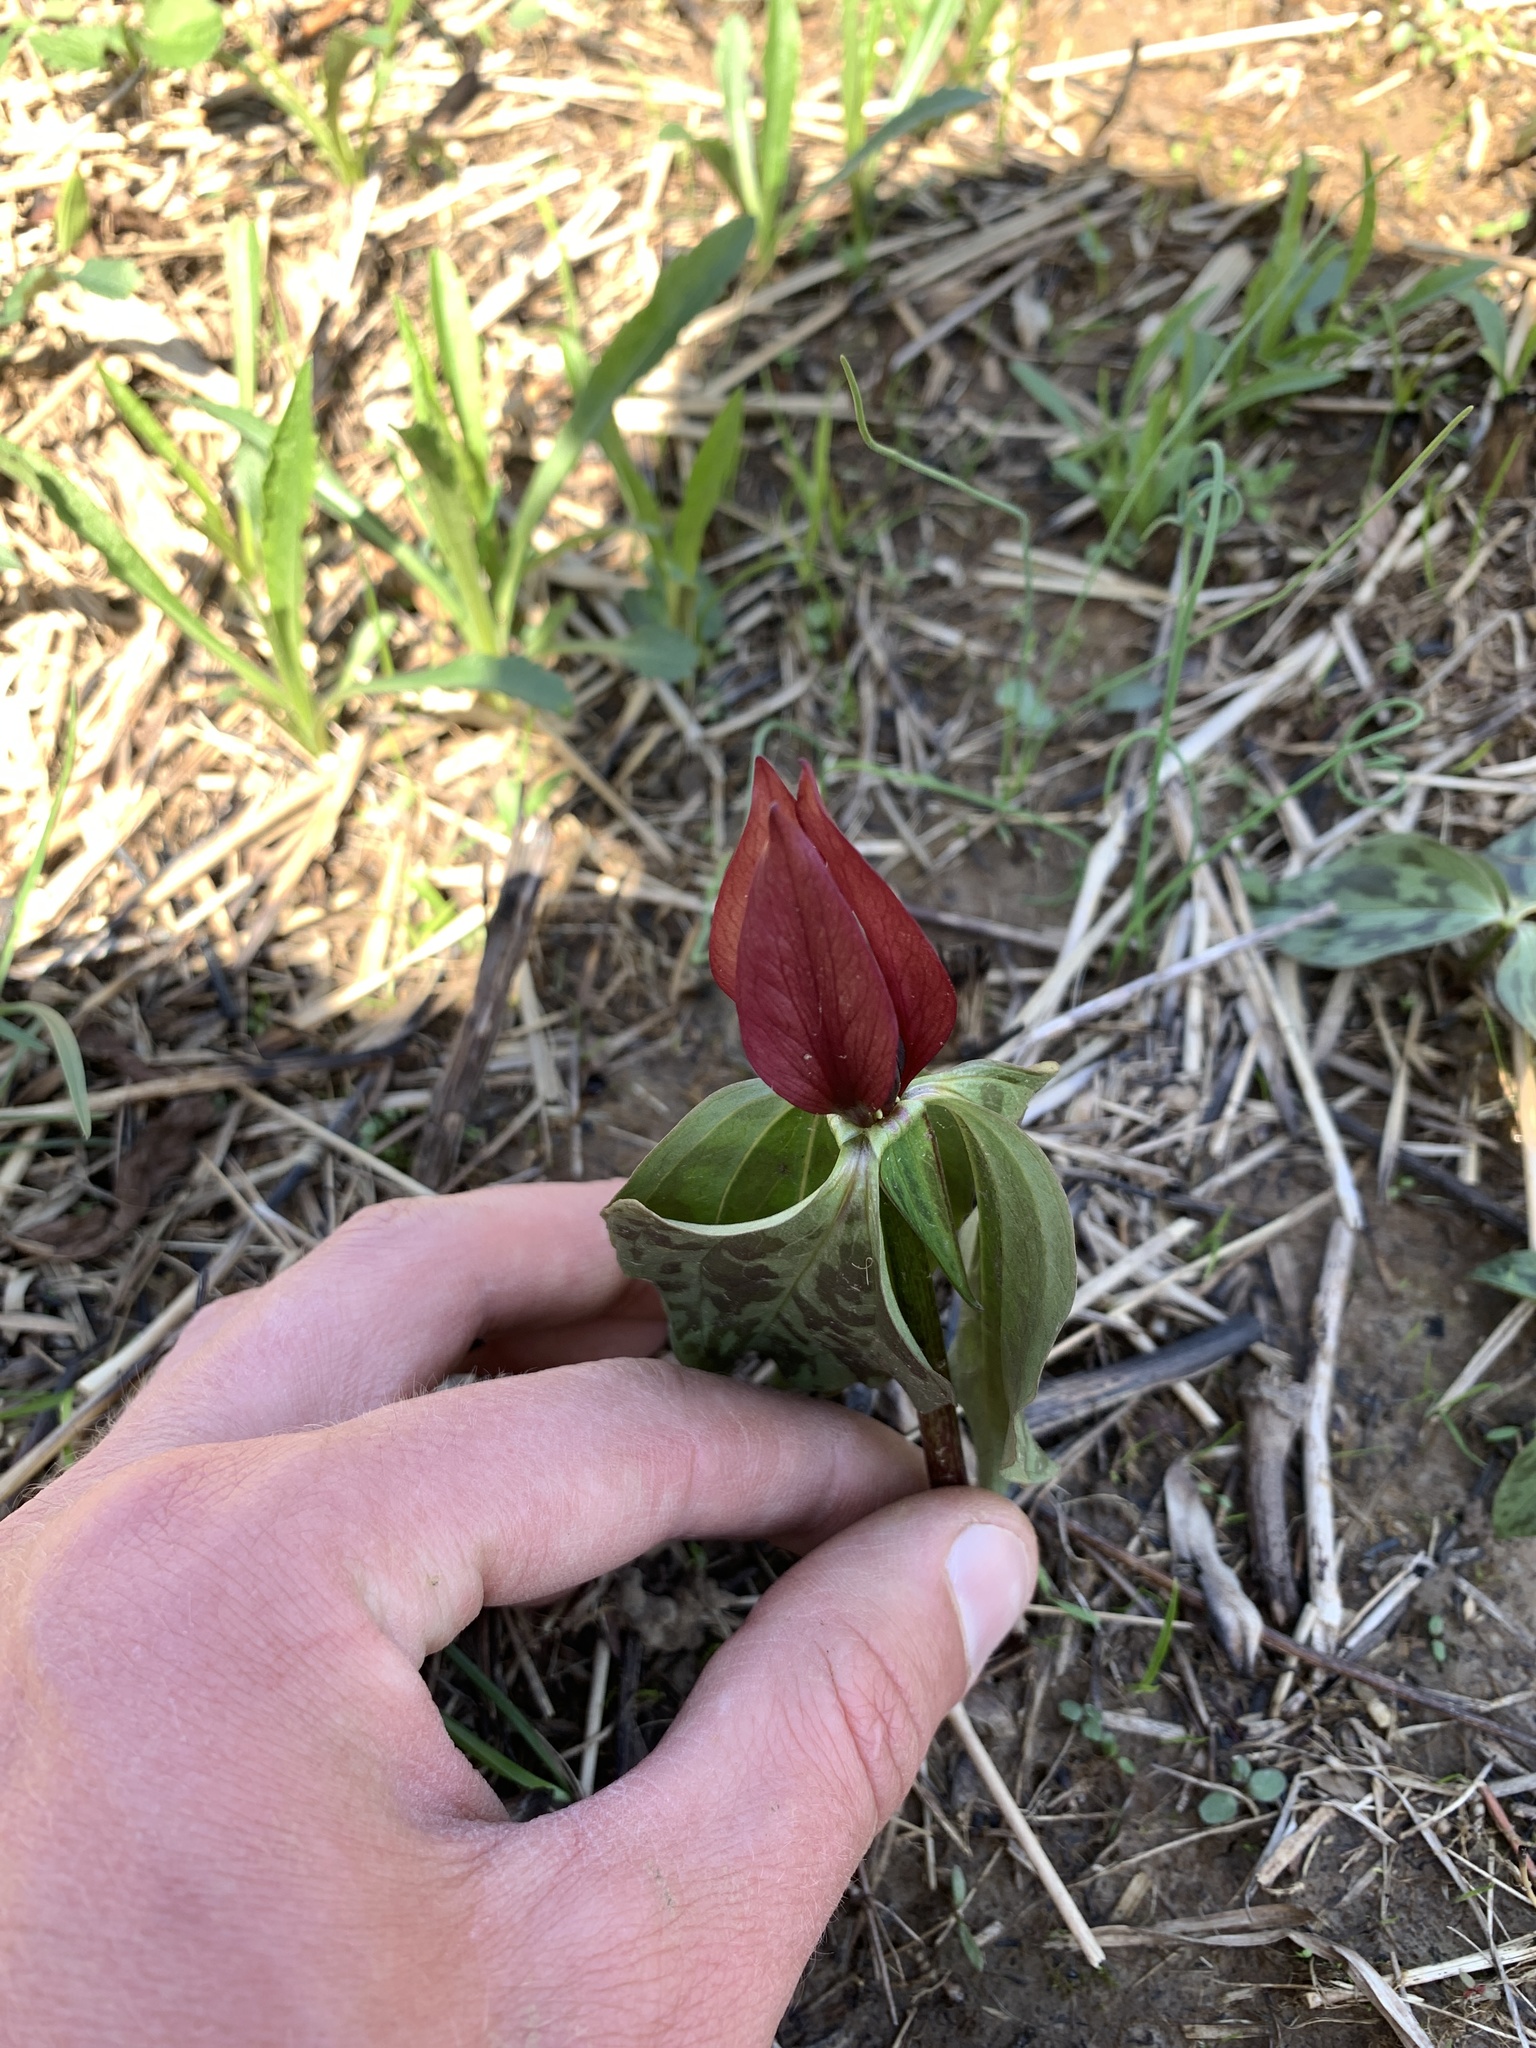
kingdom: Plantae
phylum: Tracheophyta
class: Liliopsida
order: Liliales
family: Melanthiaceae
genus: Trillium
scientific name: Trillium recurvatum
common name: Bloody butcher
